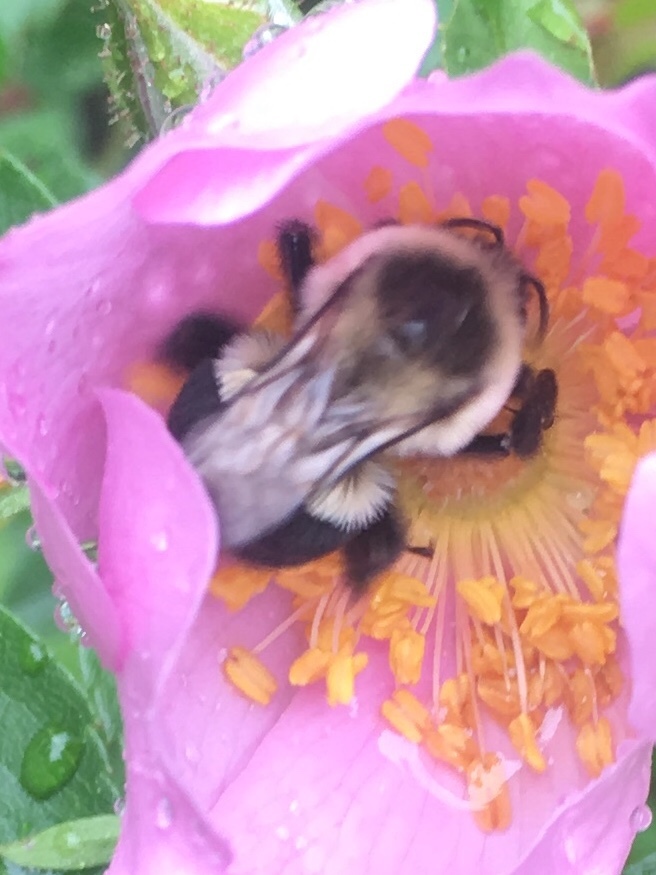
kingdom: Animalia
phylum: Arthropoda
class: Insecta
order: Hymenoptera
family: Apidae
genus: Bombus
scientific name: Bombus impatiens
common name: Common eastern bumble bee
